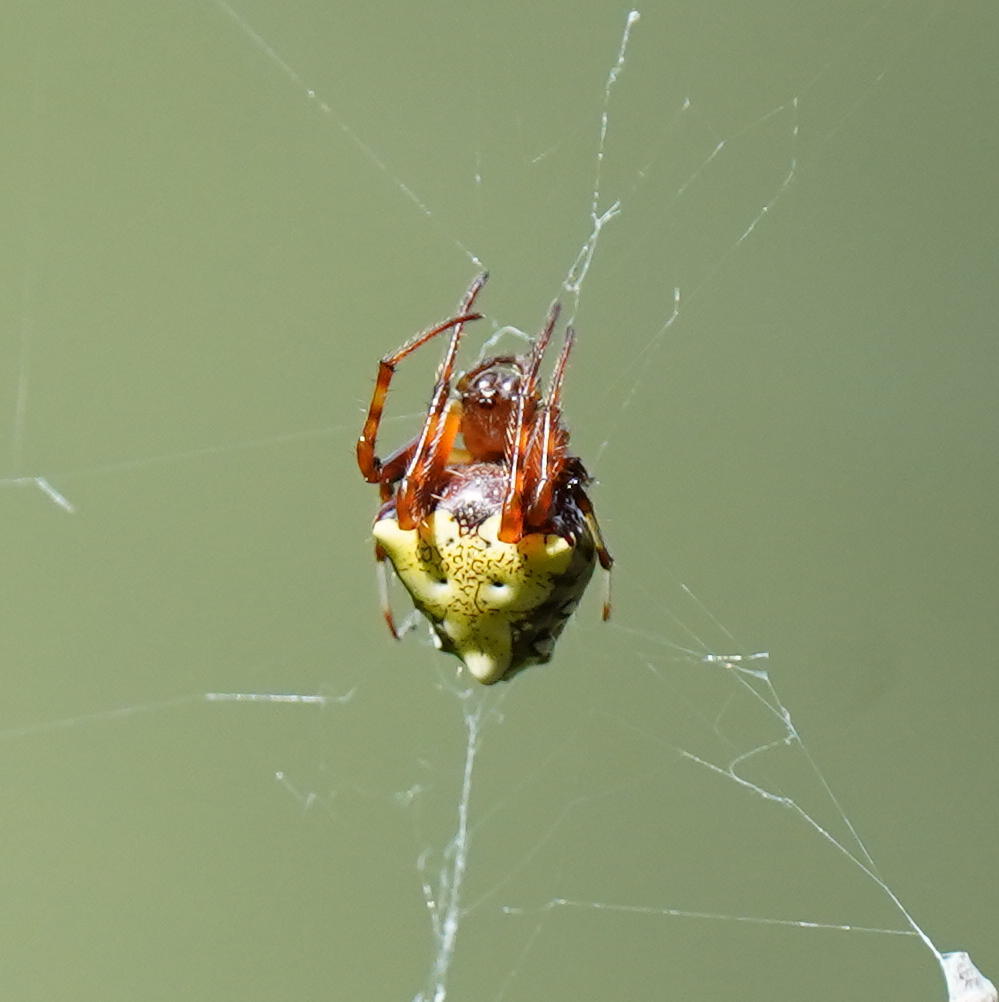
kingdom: Animalia
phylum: Arthropoda
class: Arachnida
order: Araneae
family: Araneidae
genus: Verrucosa
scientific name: Verrucosa arenata
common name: Orb weavers
